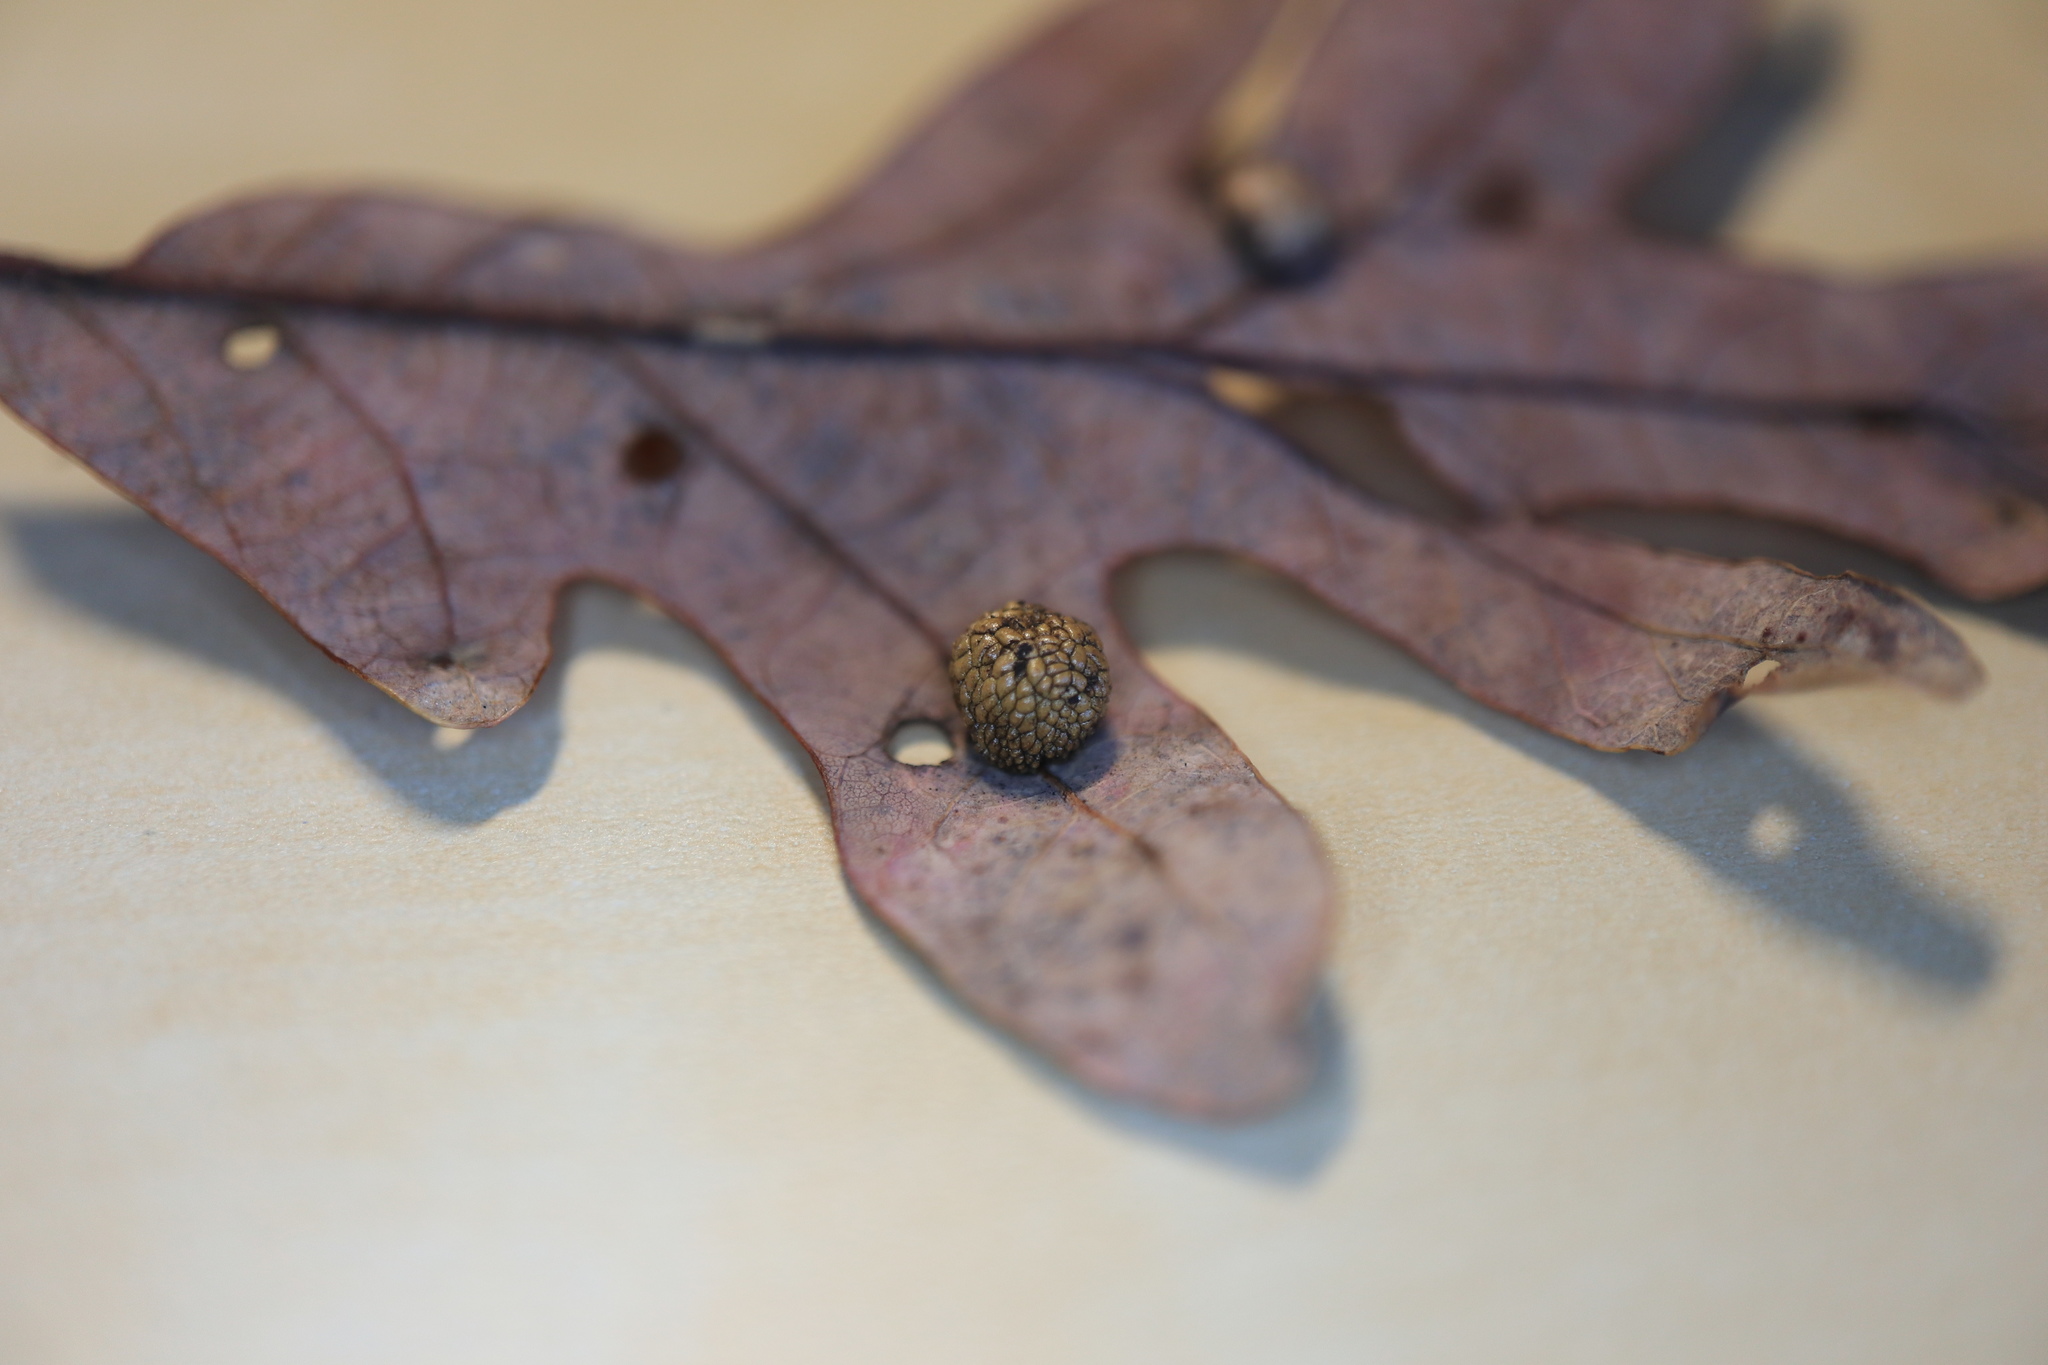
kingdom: Animalia
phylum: Arthropoda
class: Insecta
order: Hymenoptera
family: Cynipidae
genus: Acraspis
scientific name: Acraspis
